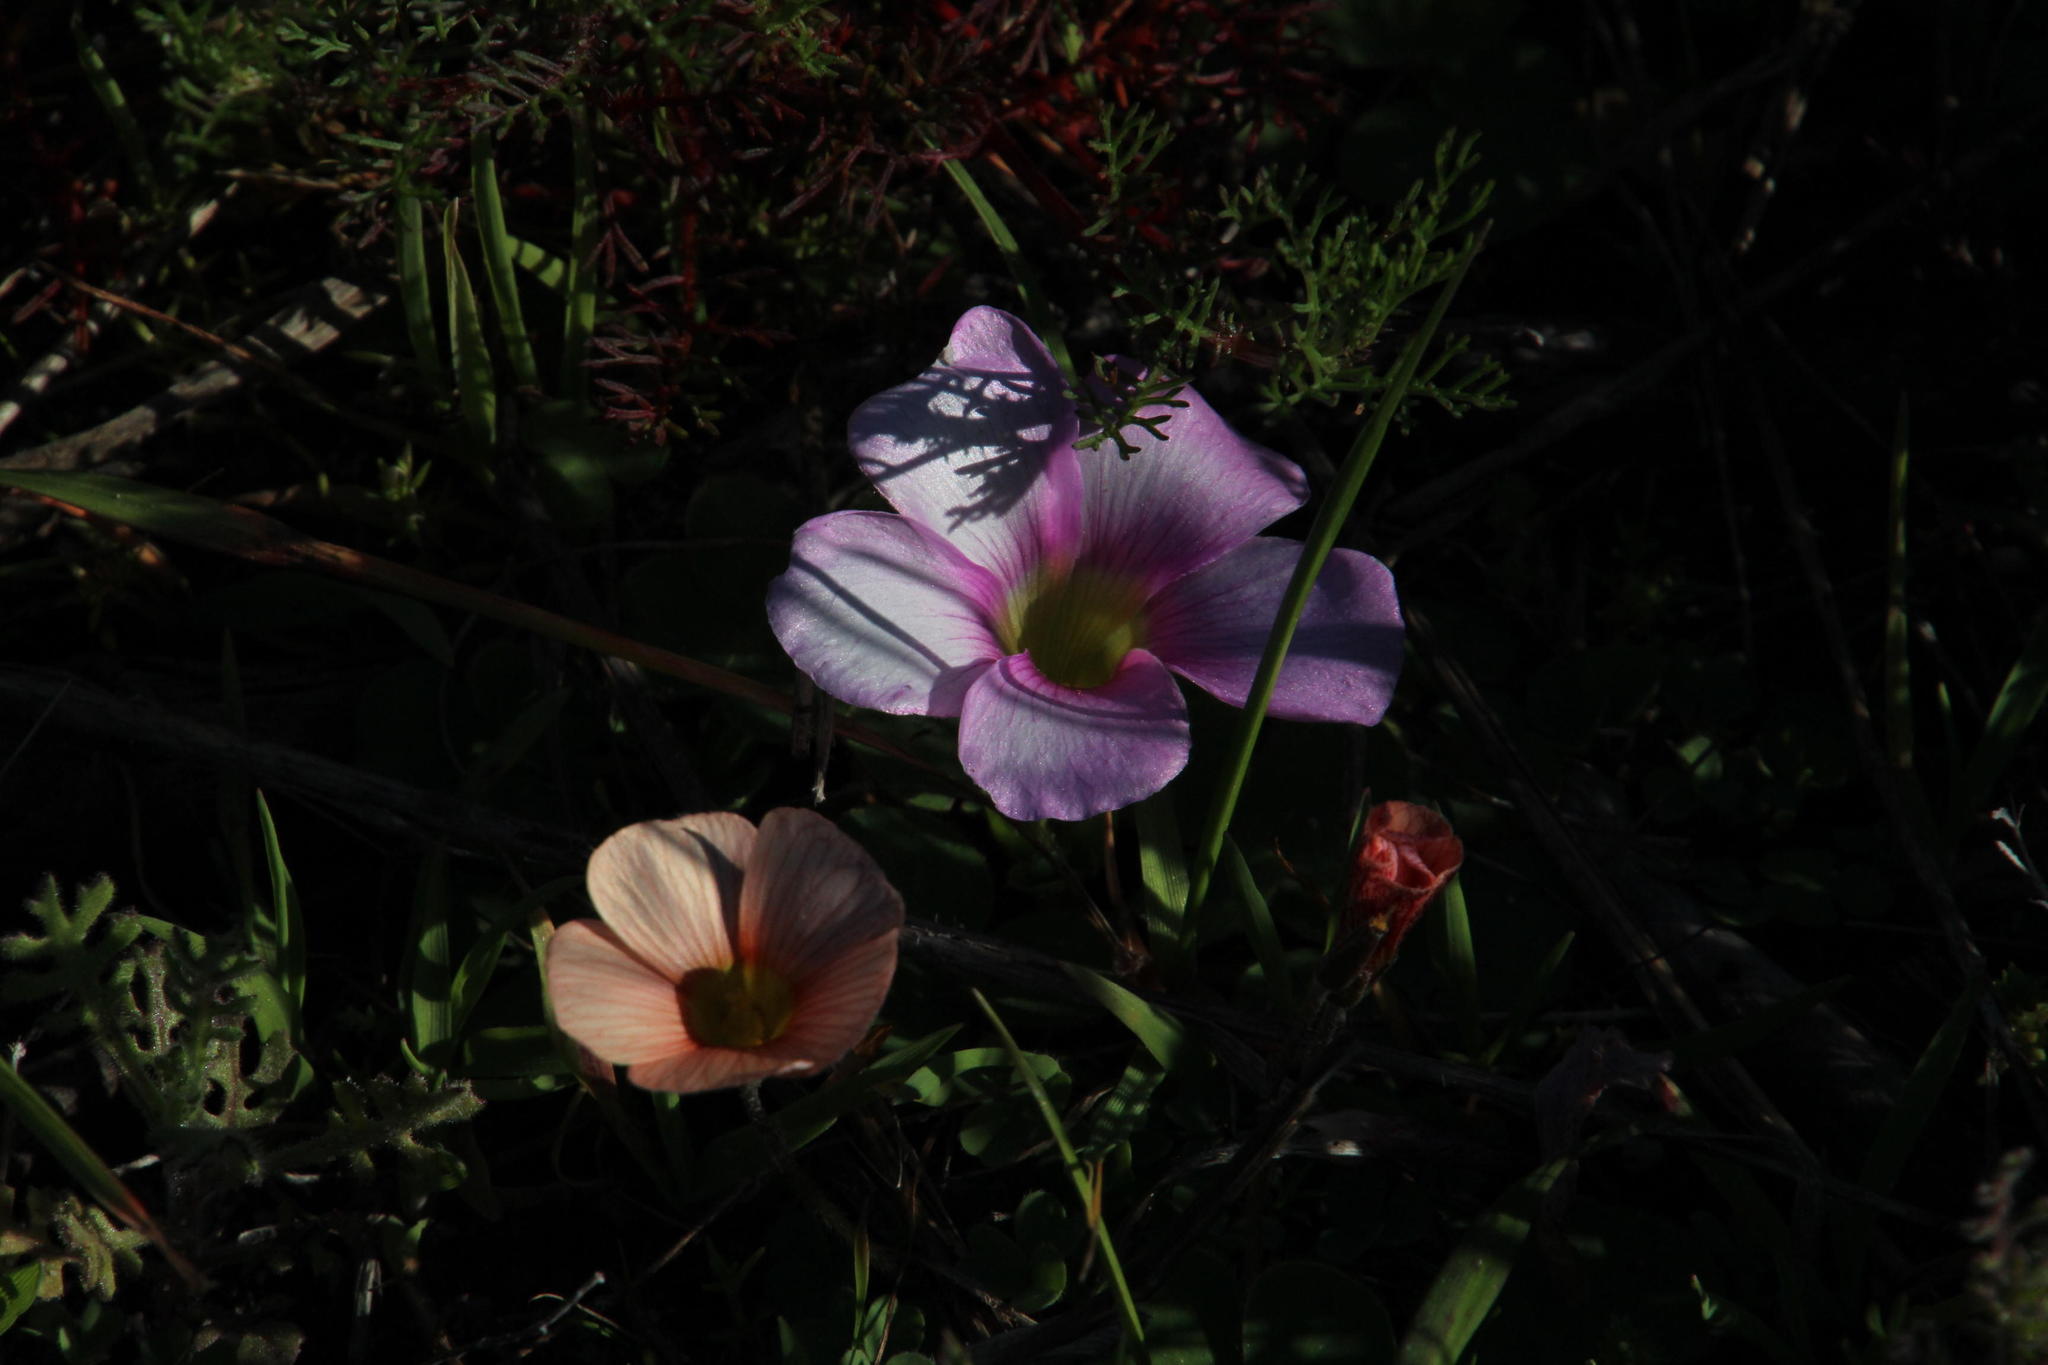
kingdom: Plantae
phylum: Tracheophyta
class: Magnoliopsida
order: Oxalidales
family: Oxalidaceae
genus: Oxalis
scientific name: Oxalis purpurea
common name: Purple woodsorrel
